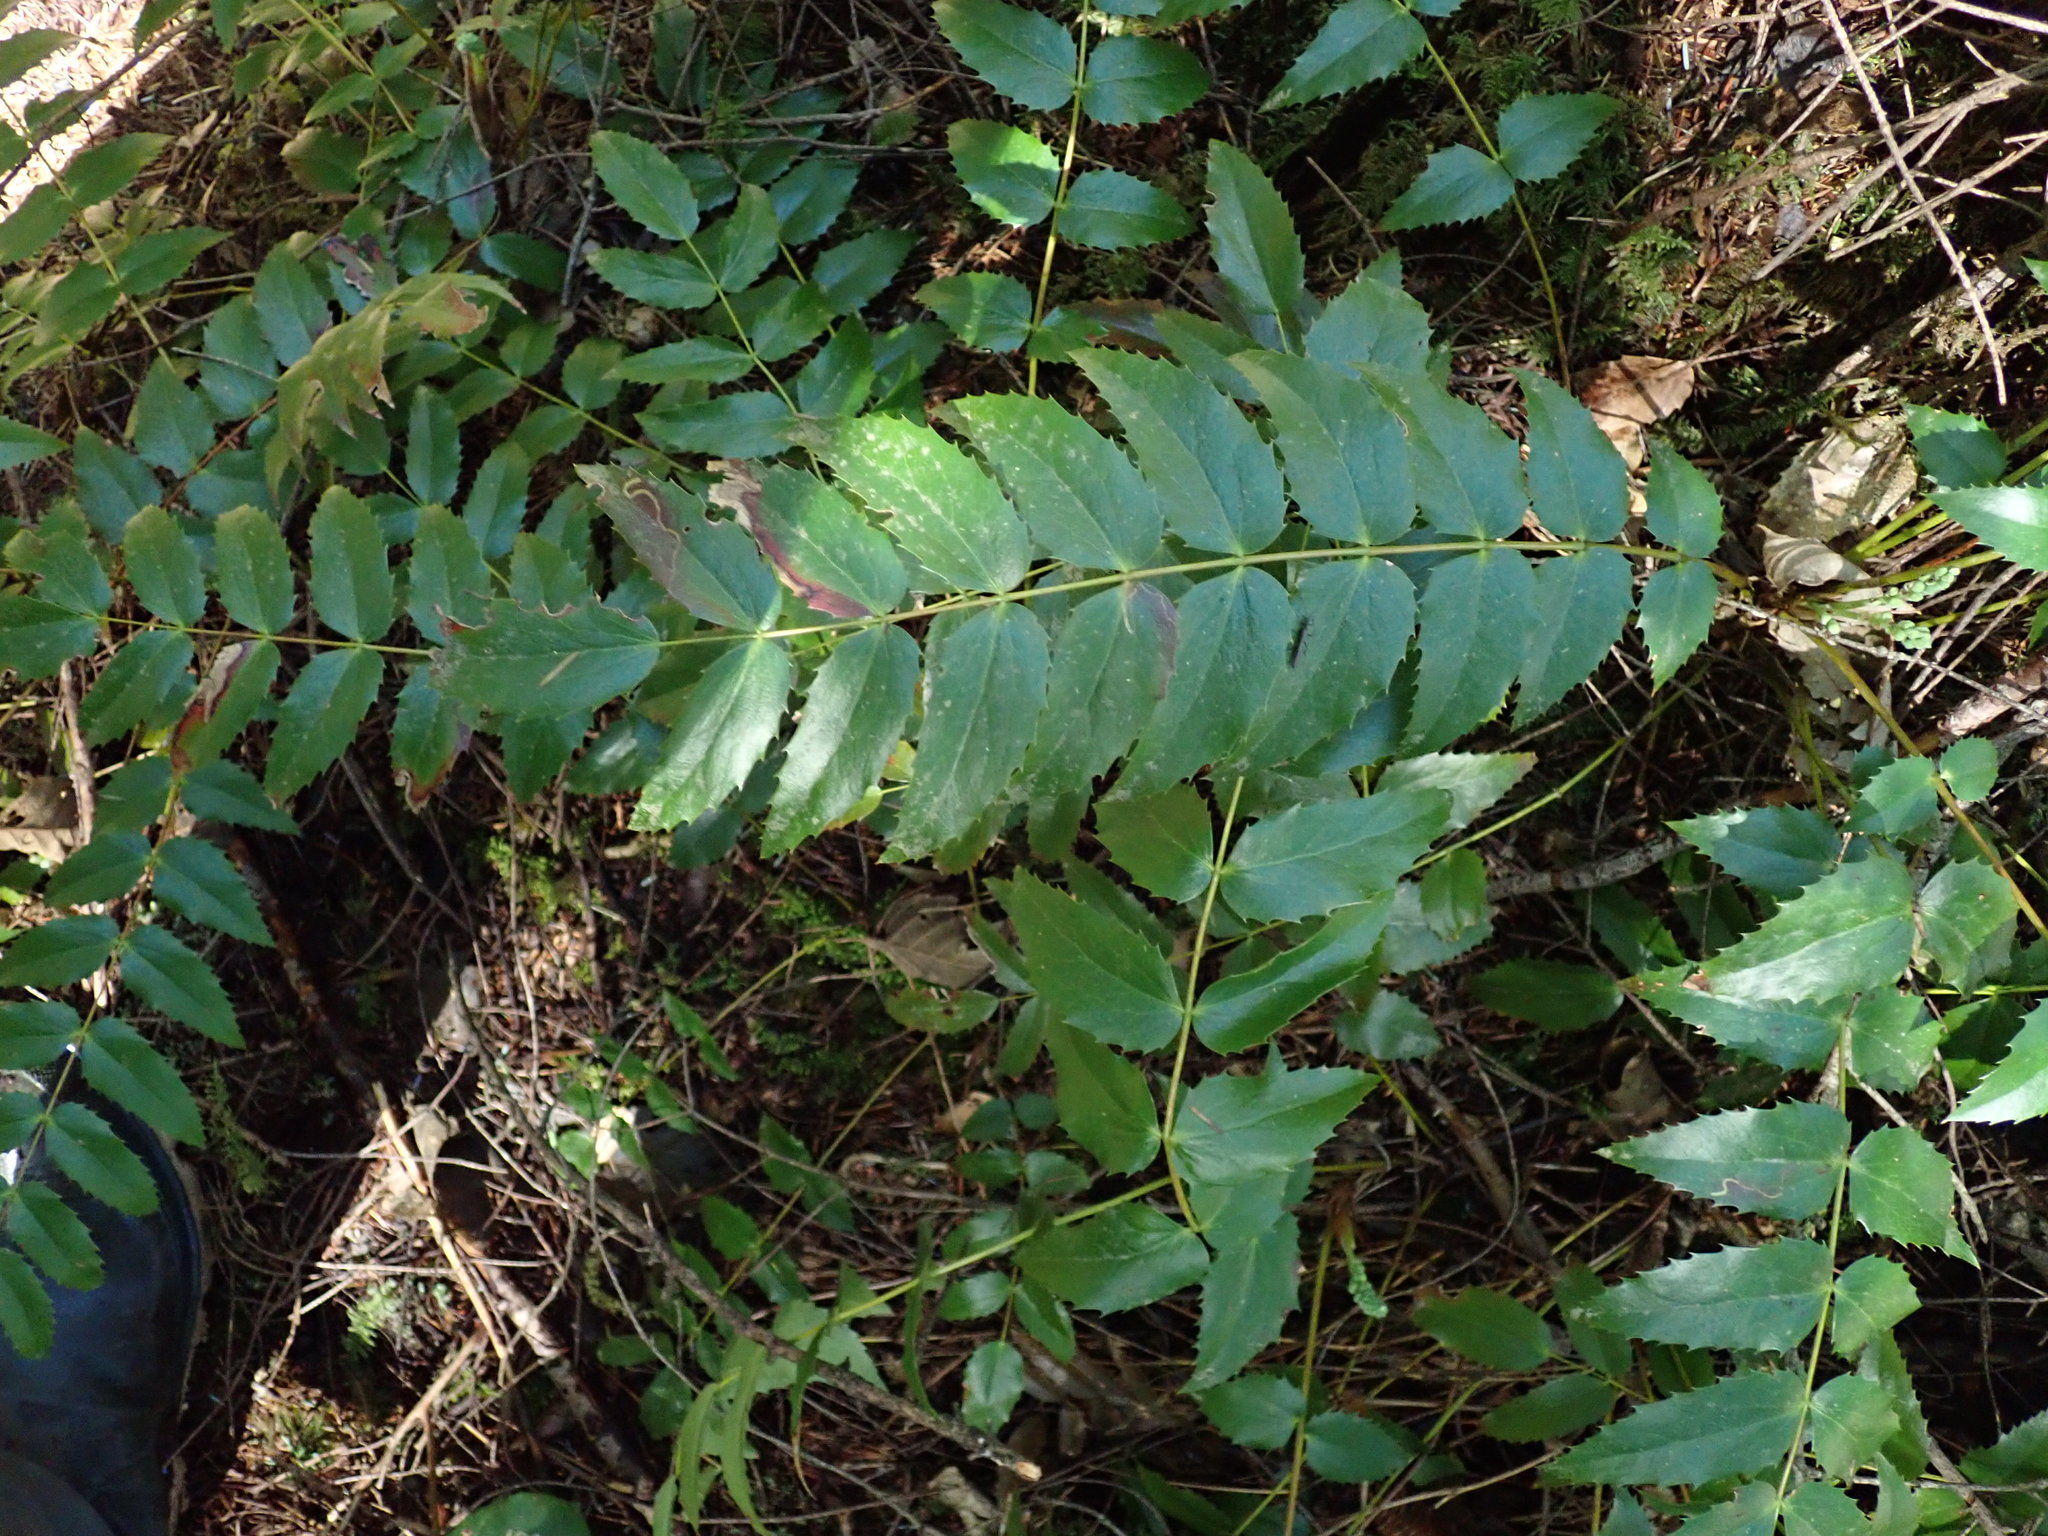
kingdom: Plantae
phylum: Tracheophyta
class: Magnoliopsida
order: Ranunculales
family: Berberidaceae
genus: Mahonia
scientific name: Mahonia nervosa
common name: Cascade oregon-grape
